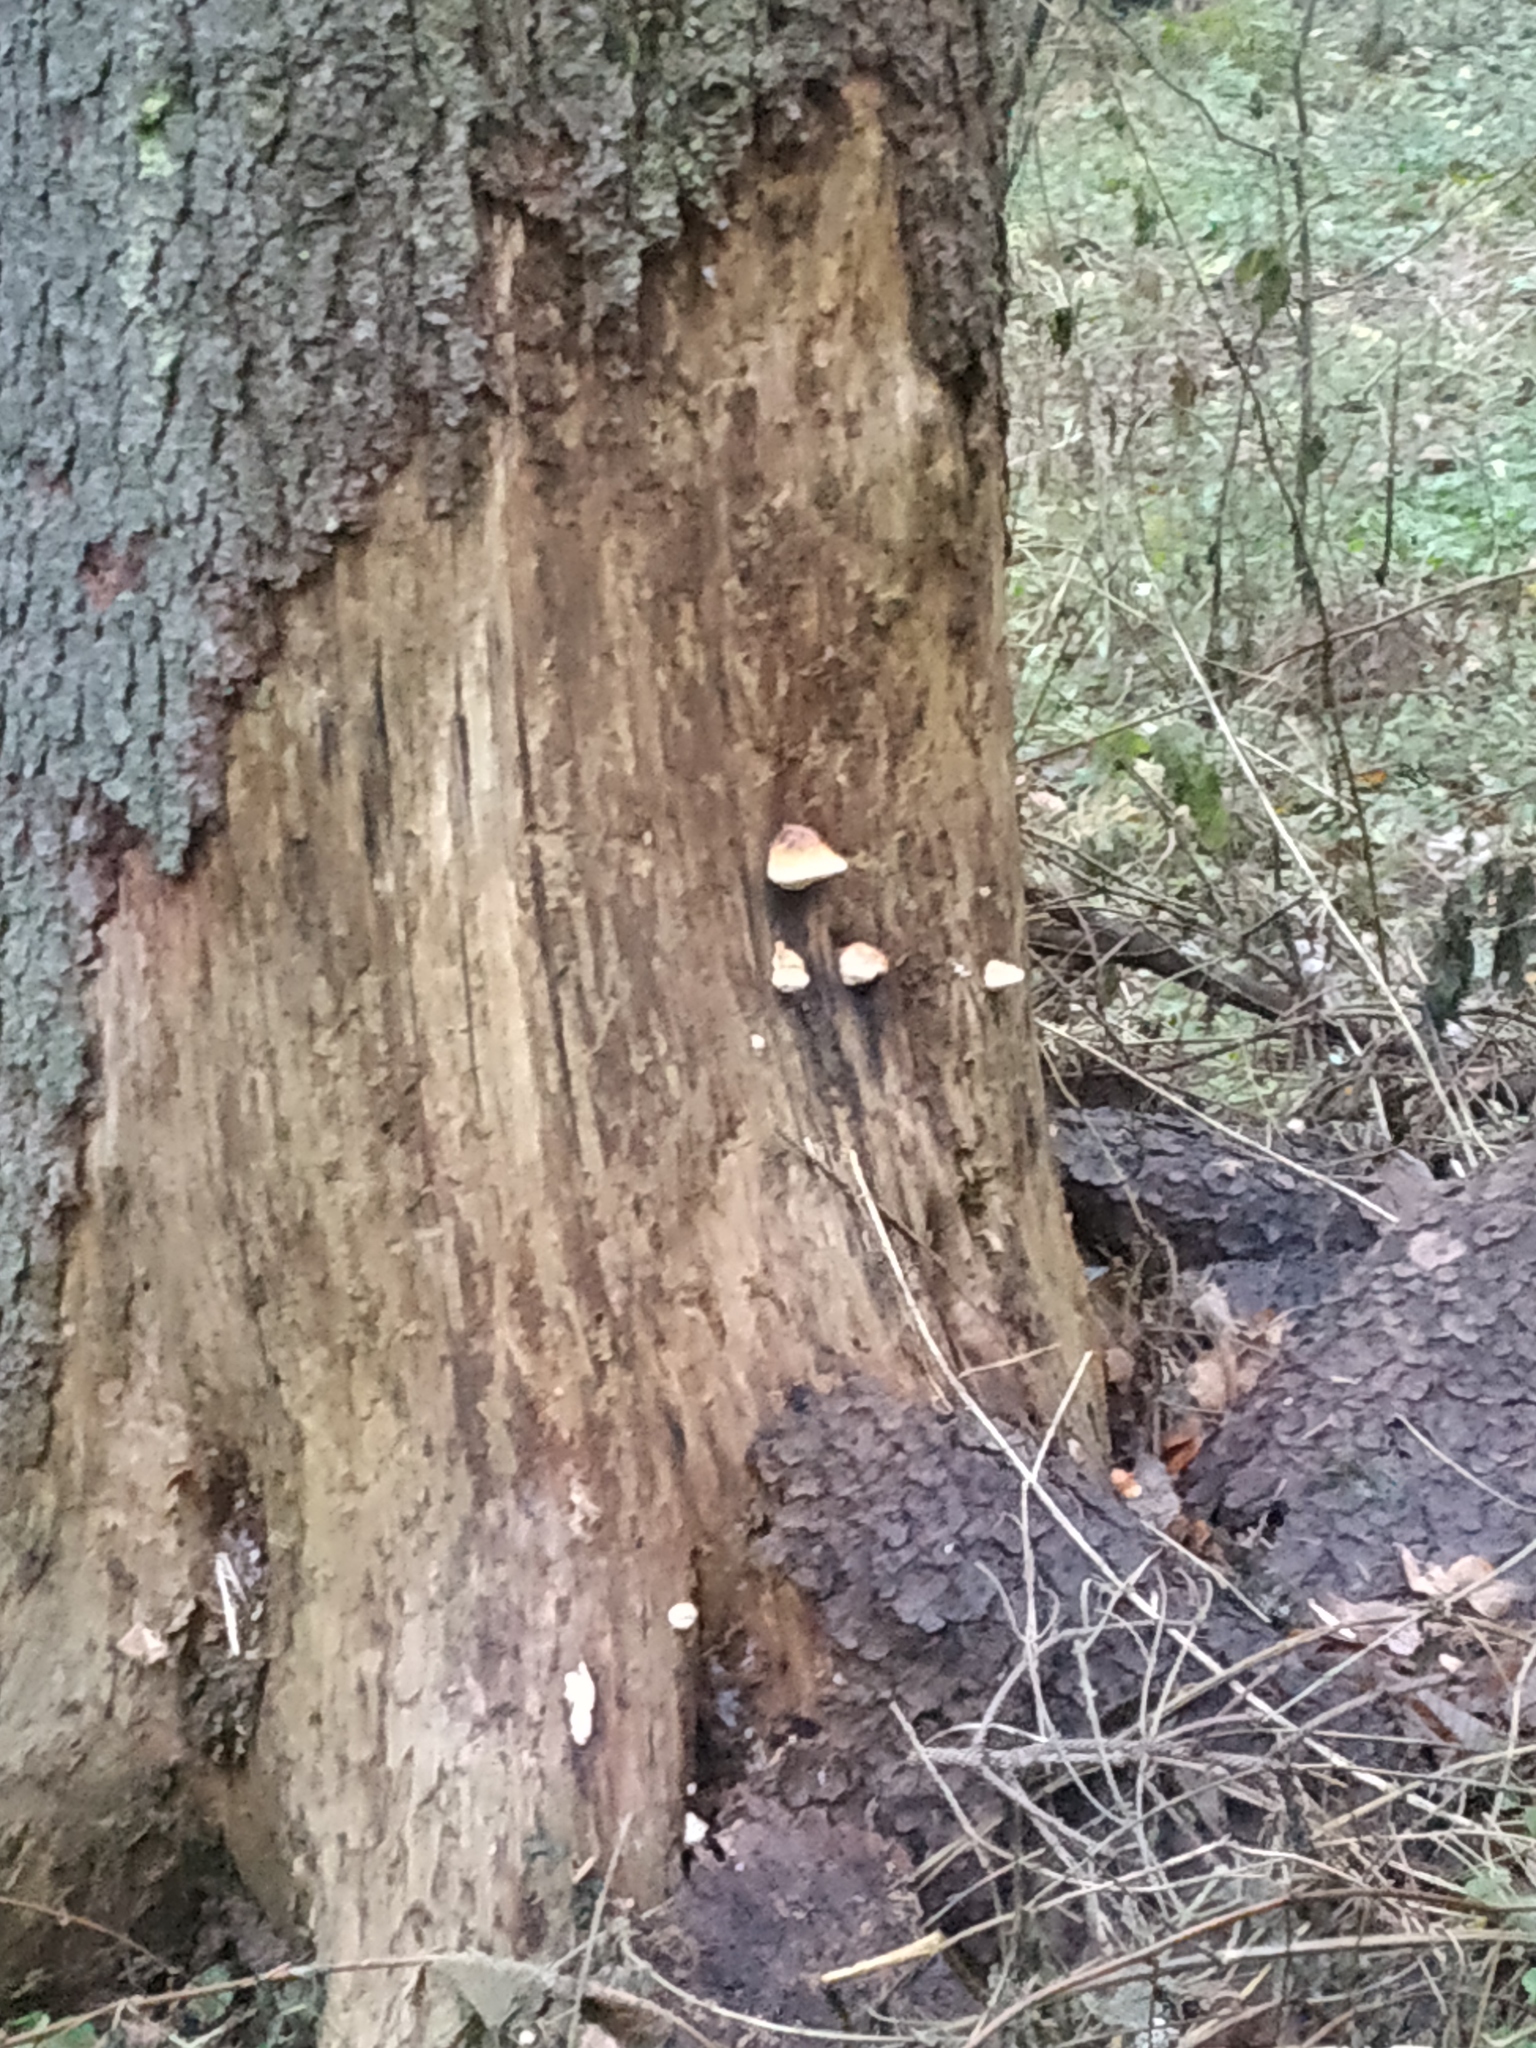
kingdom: Fungi
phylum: Basidiomycota
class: Agaricomycetes
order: Polyporales
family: Fomitopsidaceae
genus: Fomitopsis
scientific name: Fomitopsis pinicola
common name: Red-belted bracket
